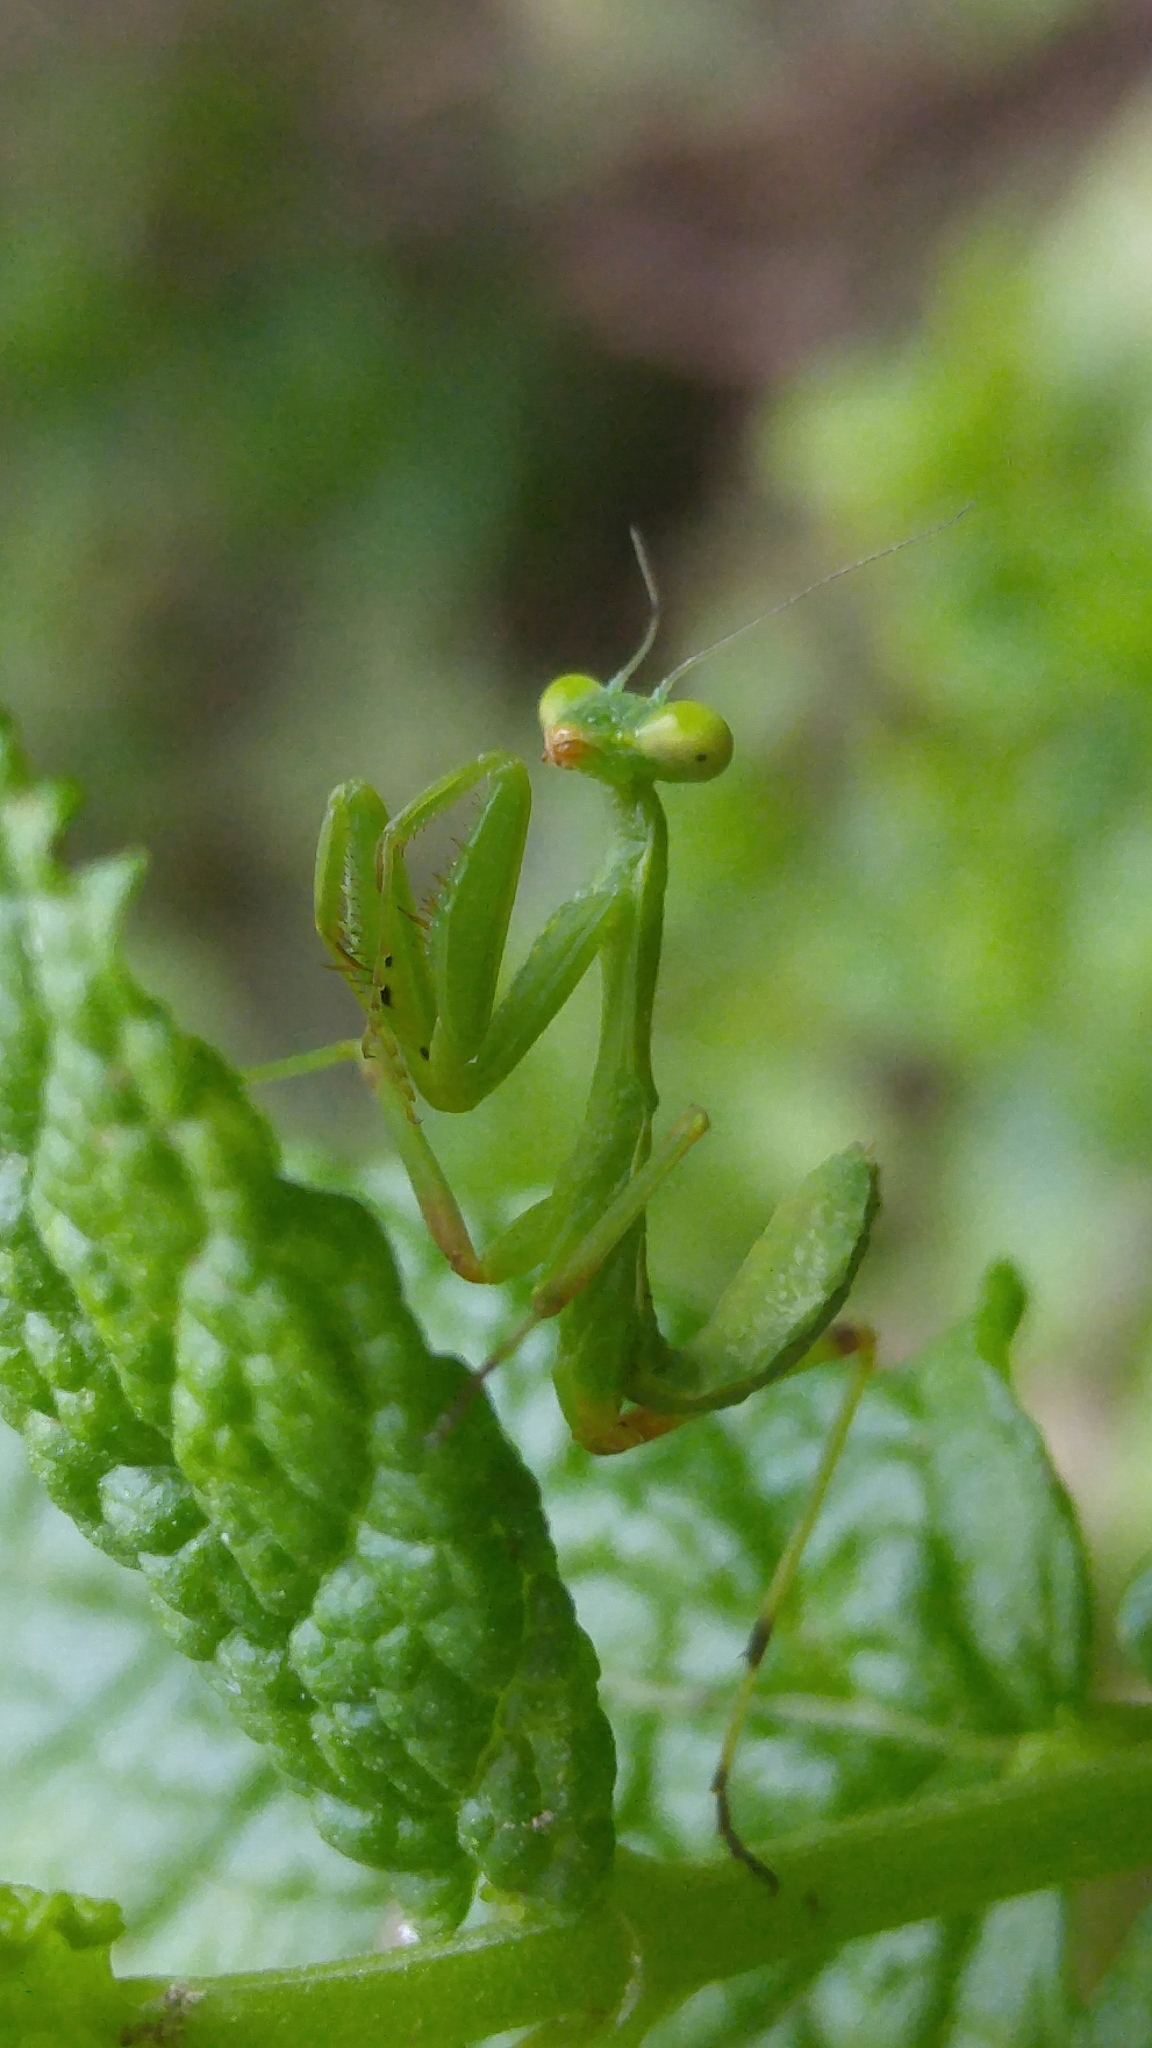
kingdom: Animalia
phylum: Arthropoda
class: Insecta
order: Mantodea
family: Mantidae
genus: Sphodromantis
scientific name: Sphodromantis viridis
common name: Giant african mantis
